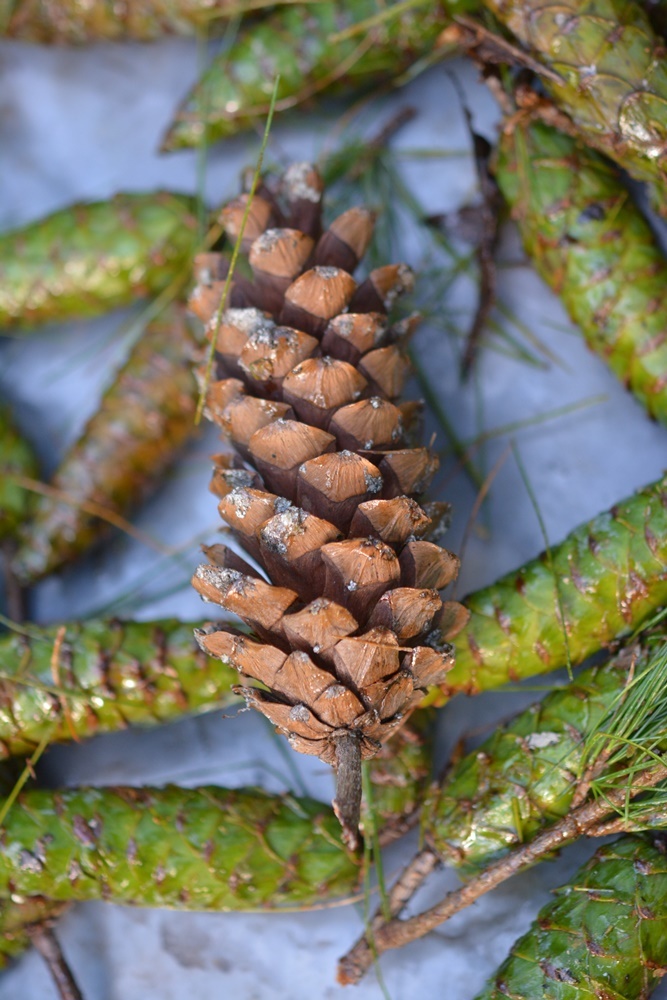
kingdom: Plantae
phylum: Tracheophyta
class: Pinopsida
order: Pinales
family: Pinaceae
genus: Pinus
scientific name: Pinus strobus
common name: Weymouth pine
